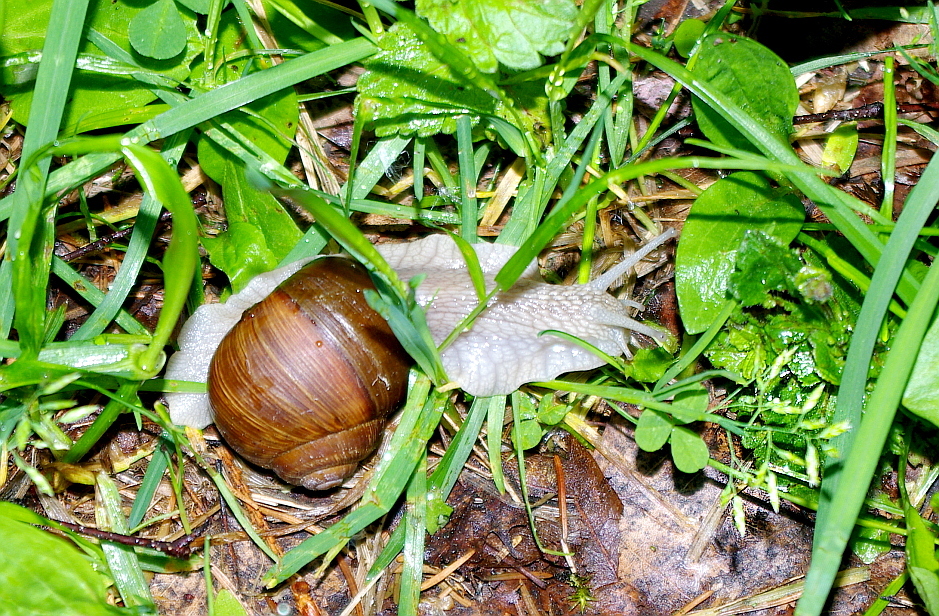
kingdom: Plantae
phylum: Tracheophyta
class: Liliopsida
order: Poales
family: Poaceae
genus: Poa
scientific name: Poa annua
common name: Annual bluegrass
